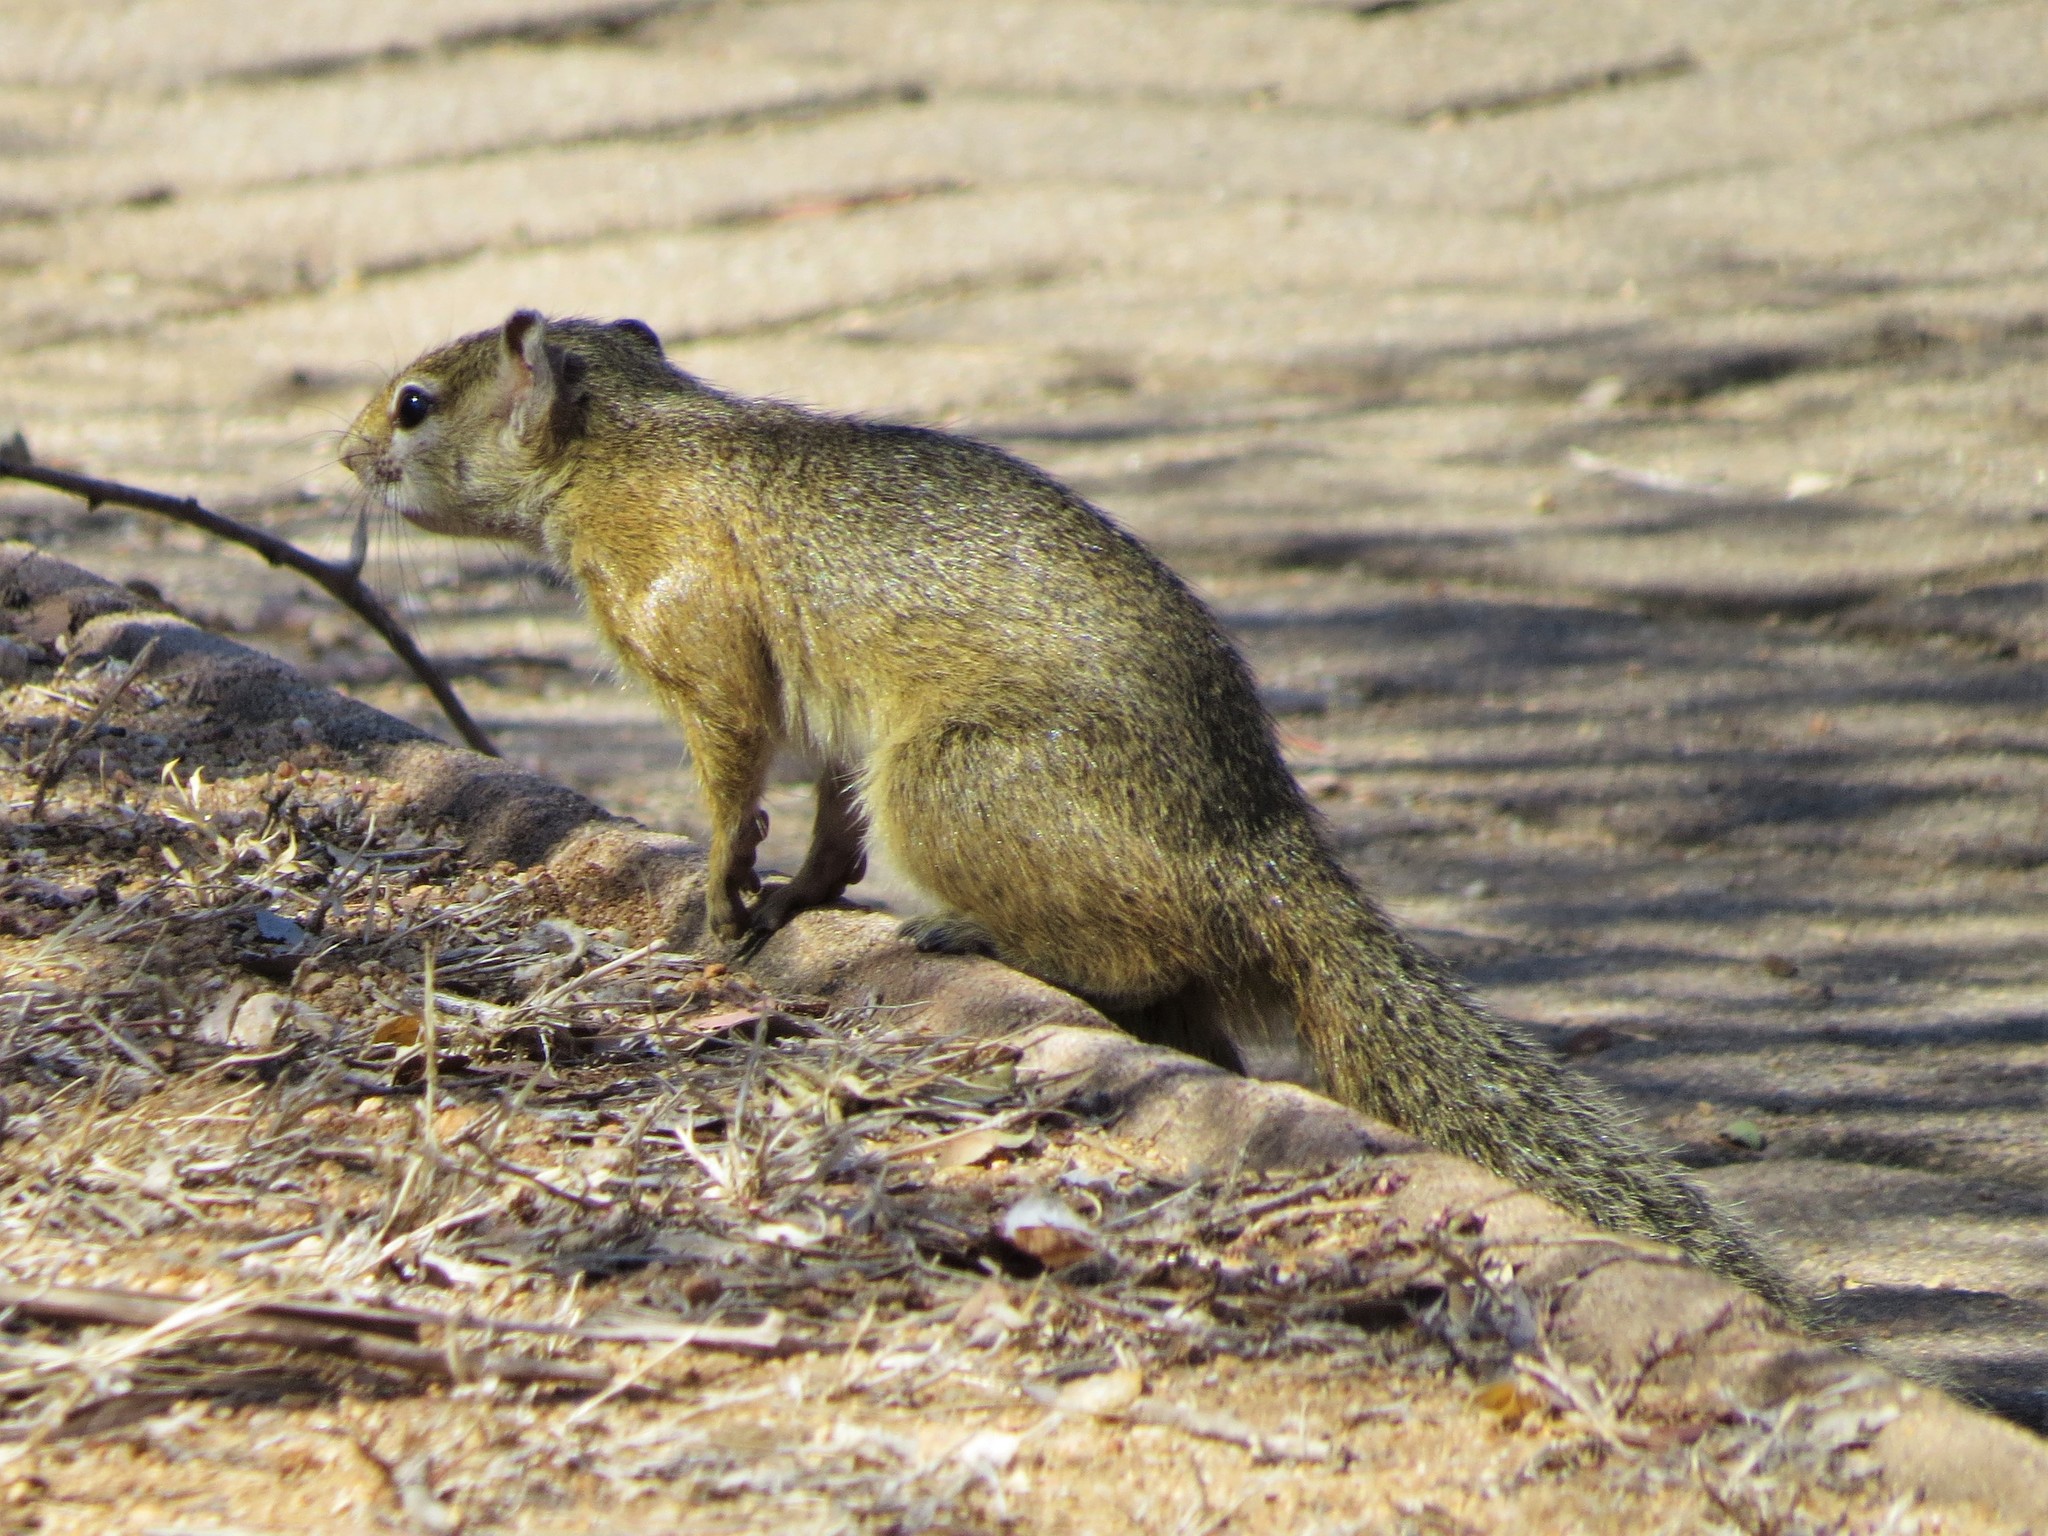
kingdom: Animalia
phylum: Chordata
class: Mammalia
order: Rodentia
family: Sciuridae
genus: Paraxerus
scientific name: Paraxerus cepapi
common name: Smith's bush squirrel
